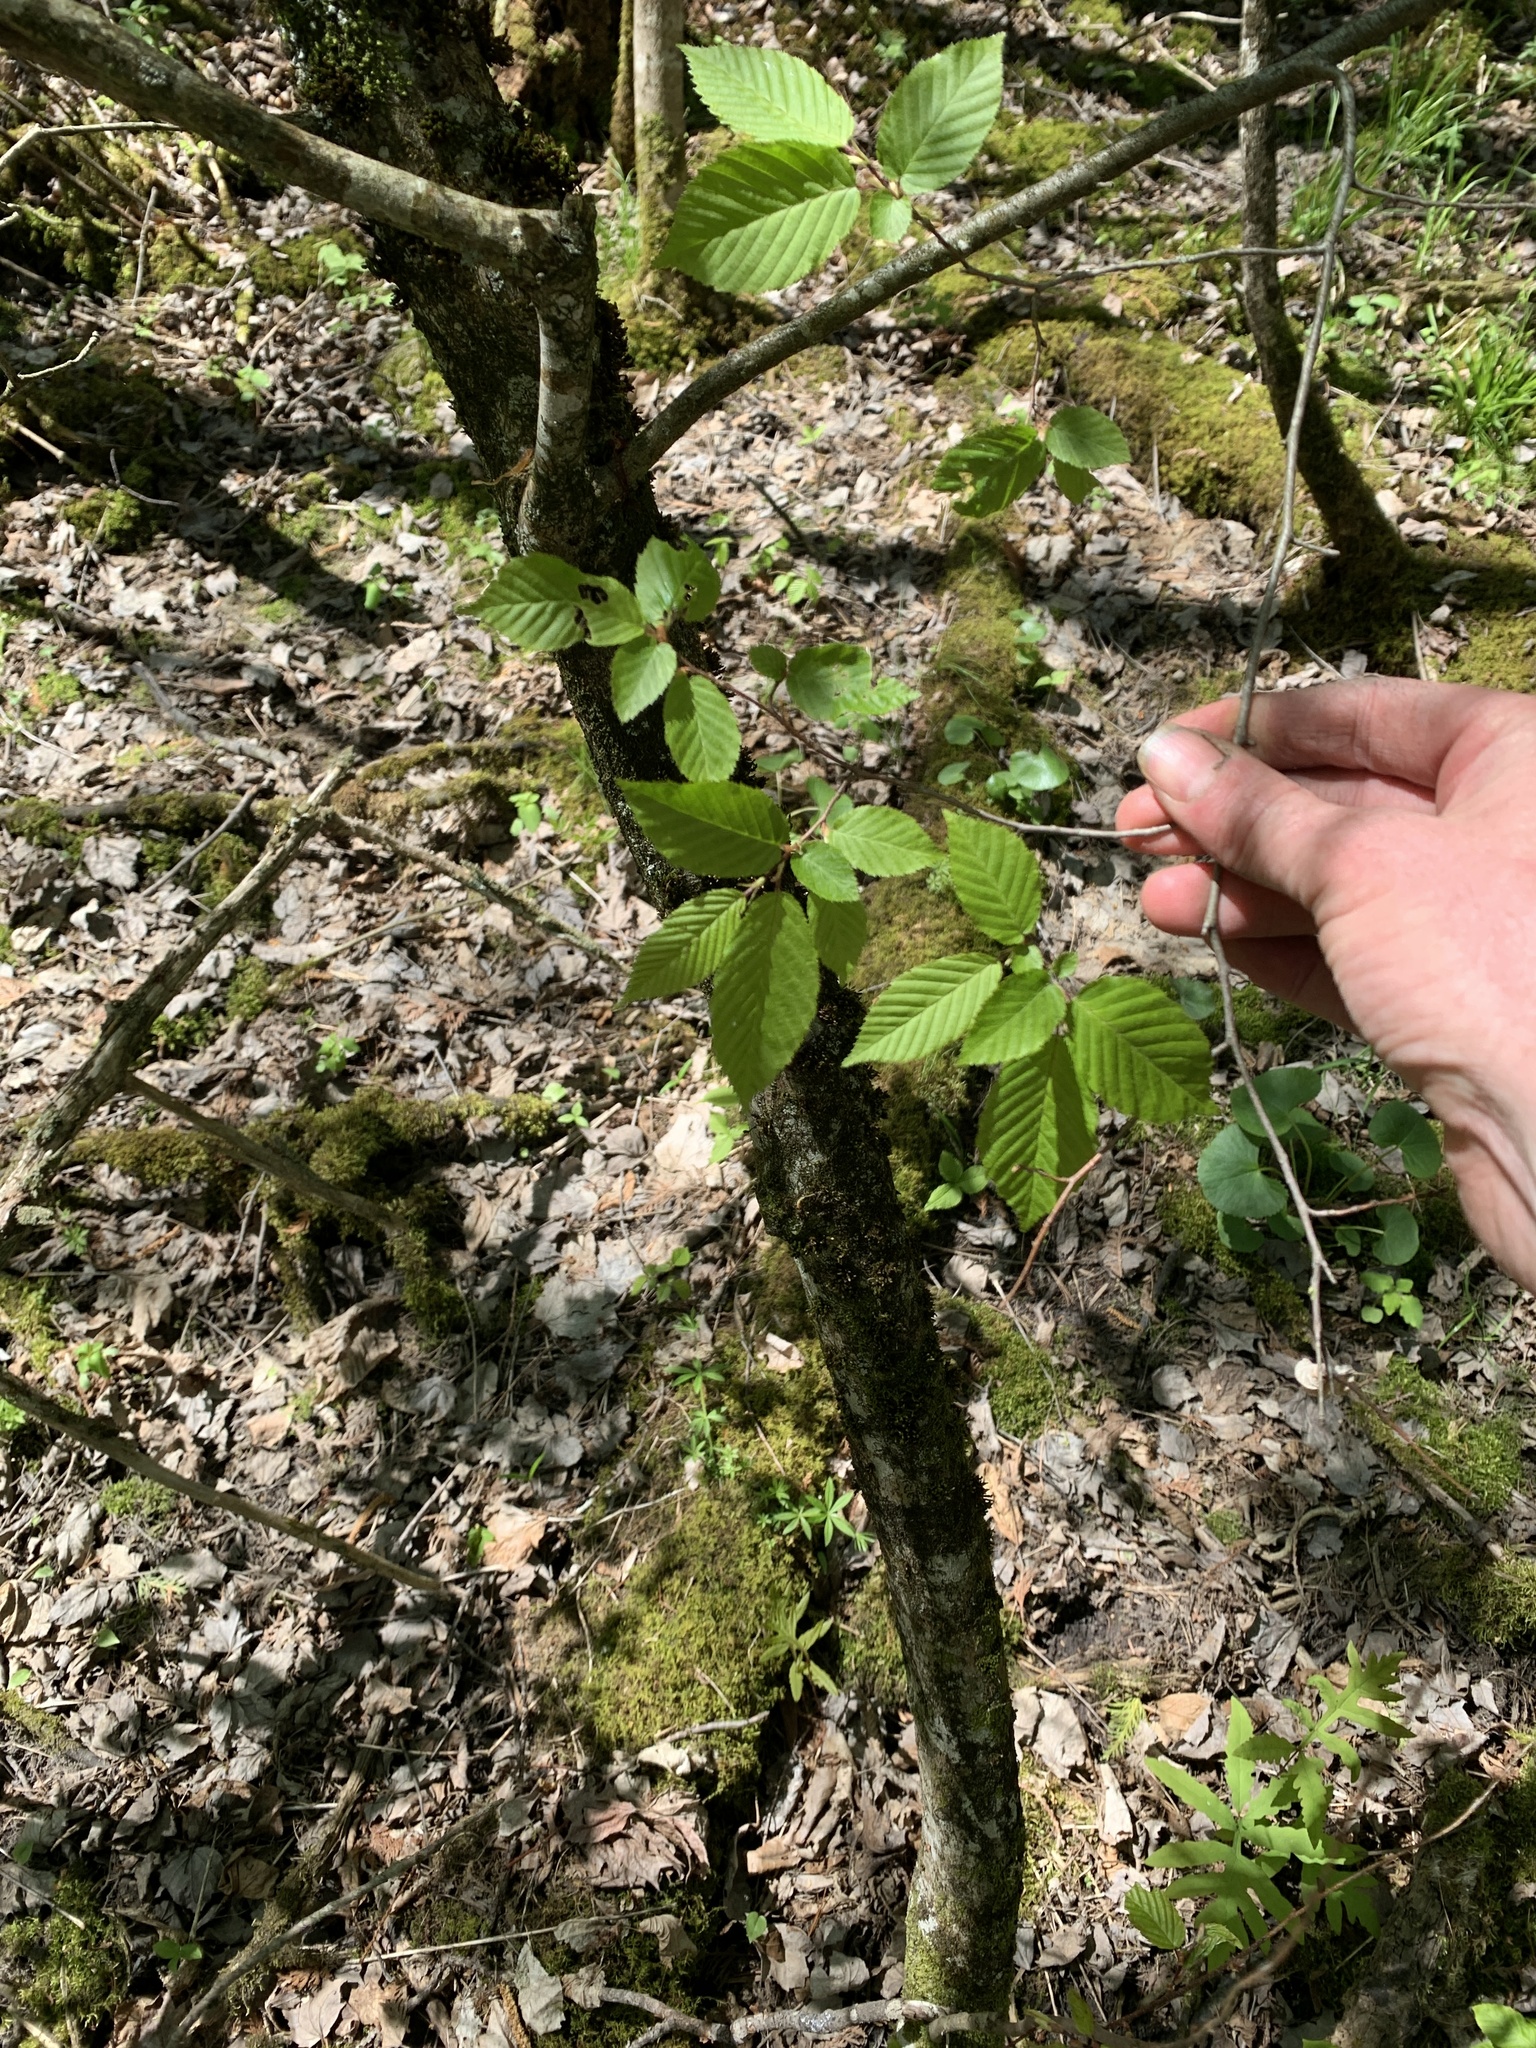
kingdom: Plantae
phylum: Tracheophyta
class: Magnoliopsida
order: Fagales
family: Betulaceae
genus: Carpinus
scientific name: Carpinus caroliniana
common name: American hornbeam
